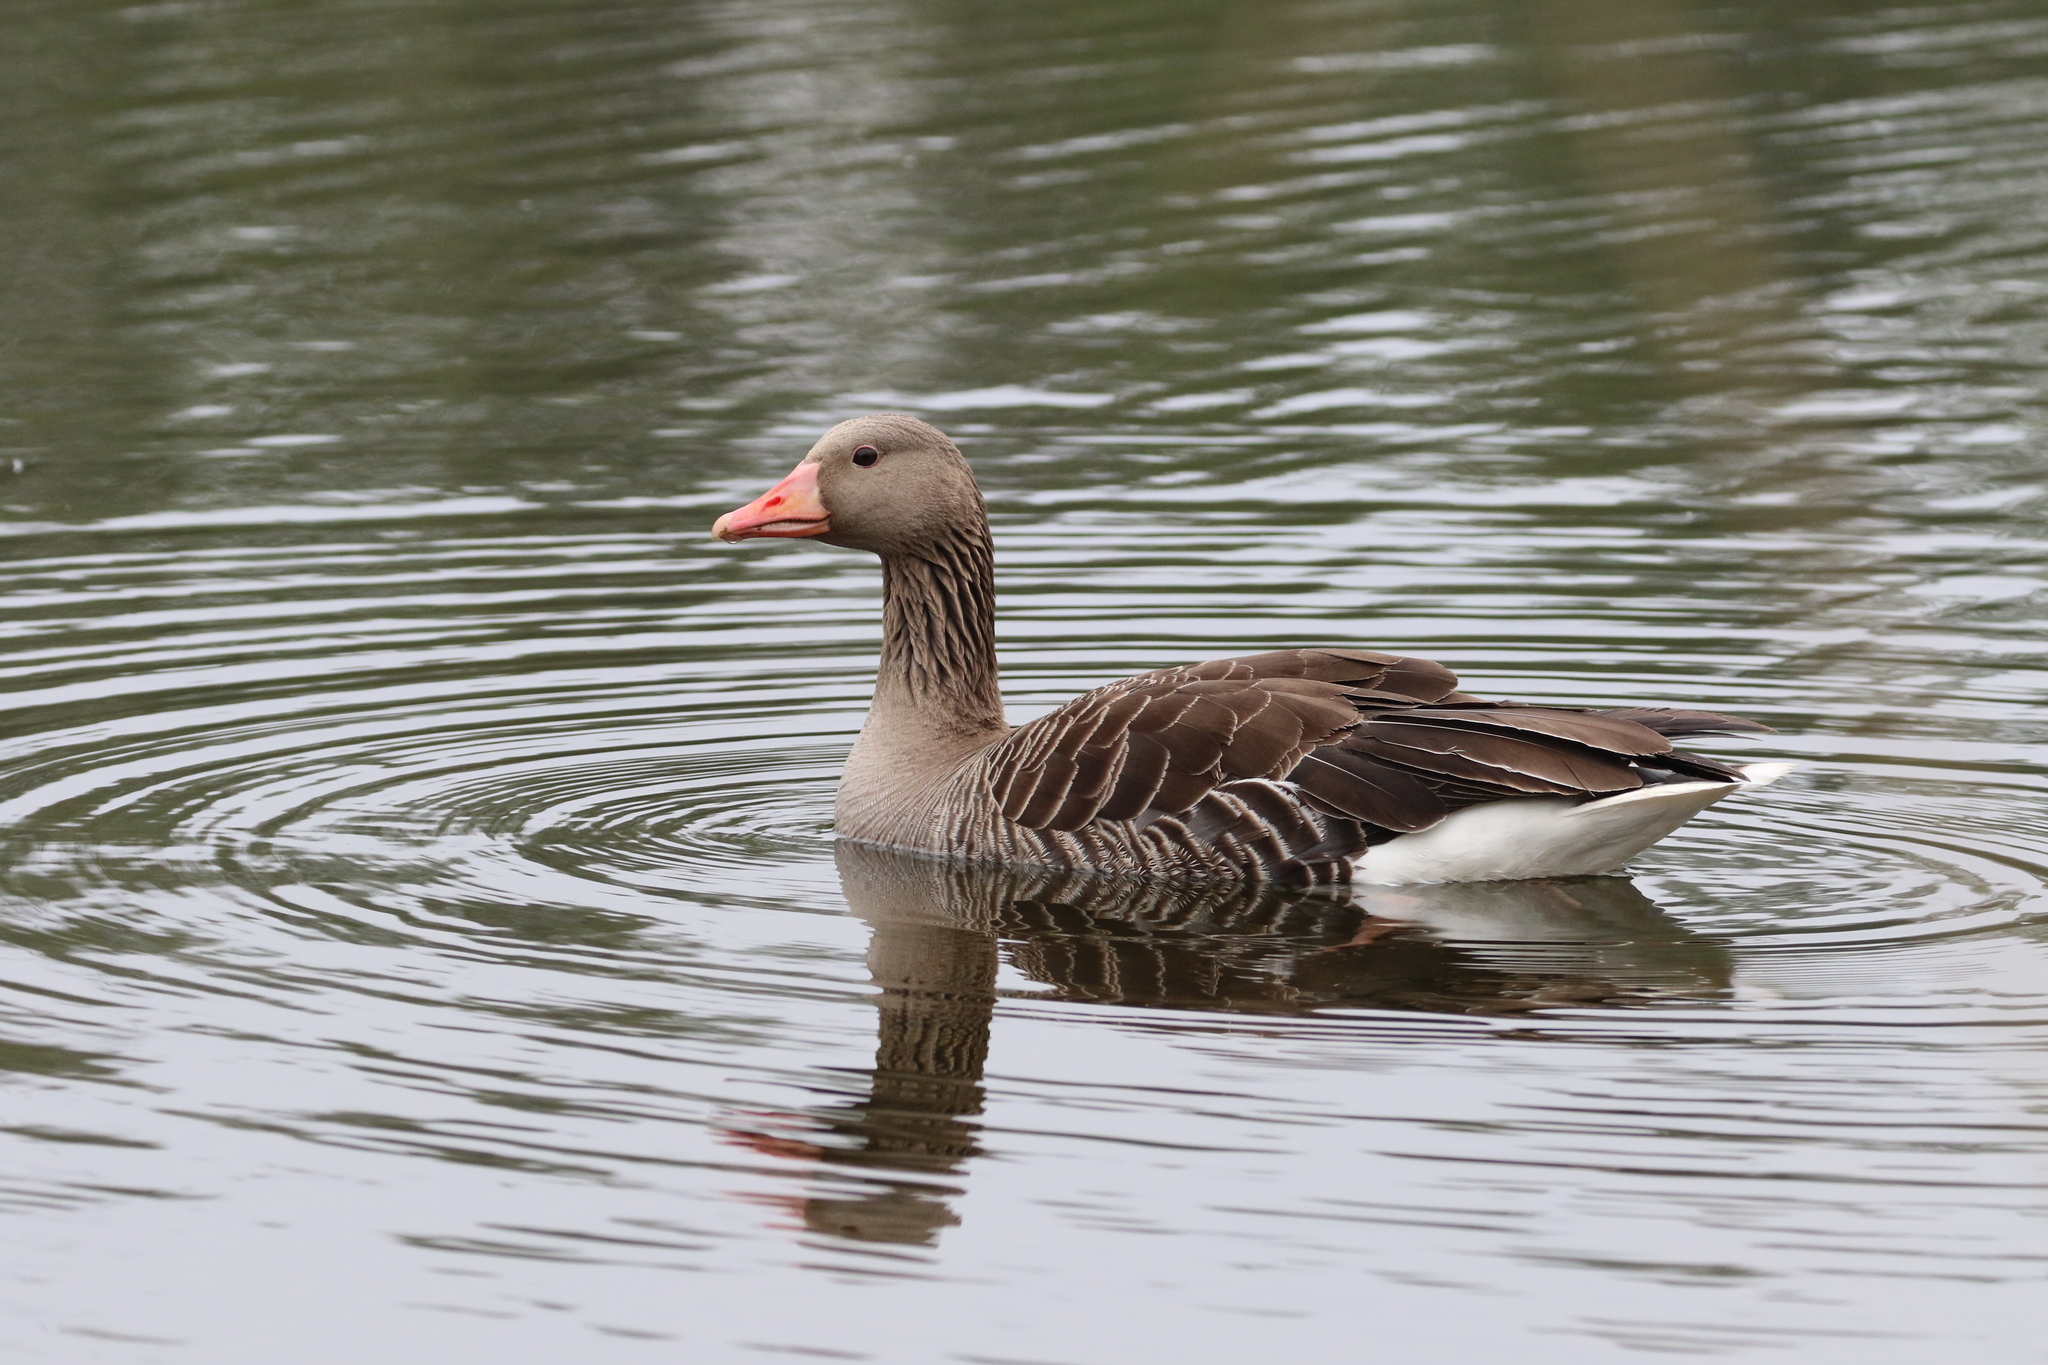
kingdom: Animalia
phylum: Chordata
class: Aves
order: Anseriformes
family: Anatidae
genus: Anser
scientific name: Anser anser
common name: Greylag goose
